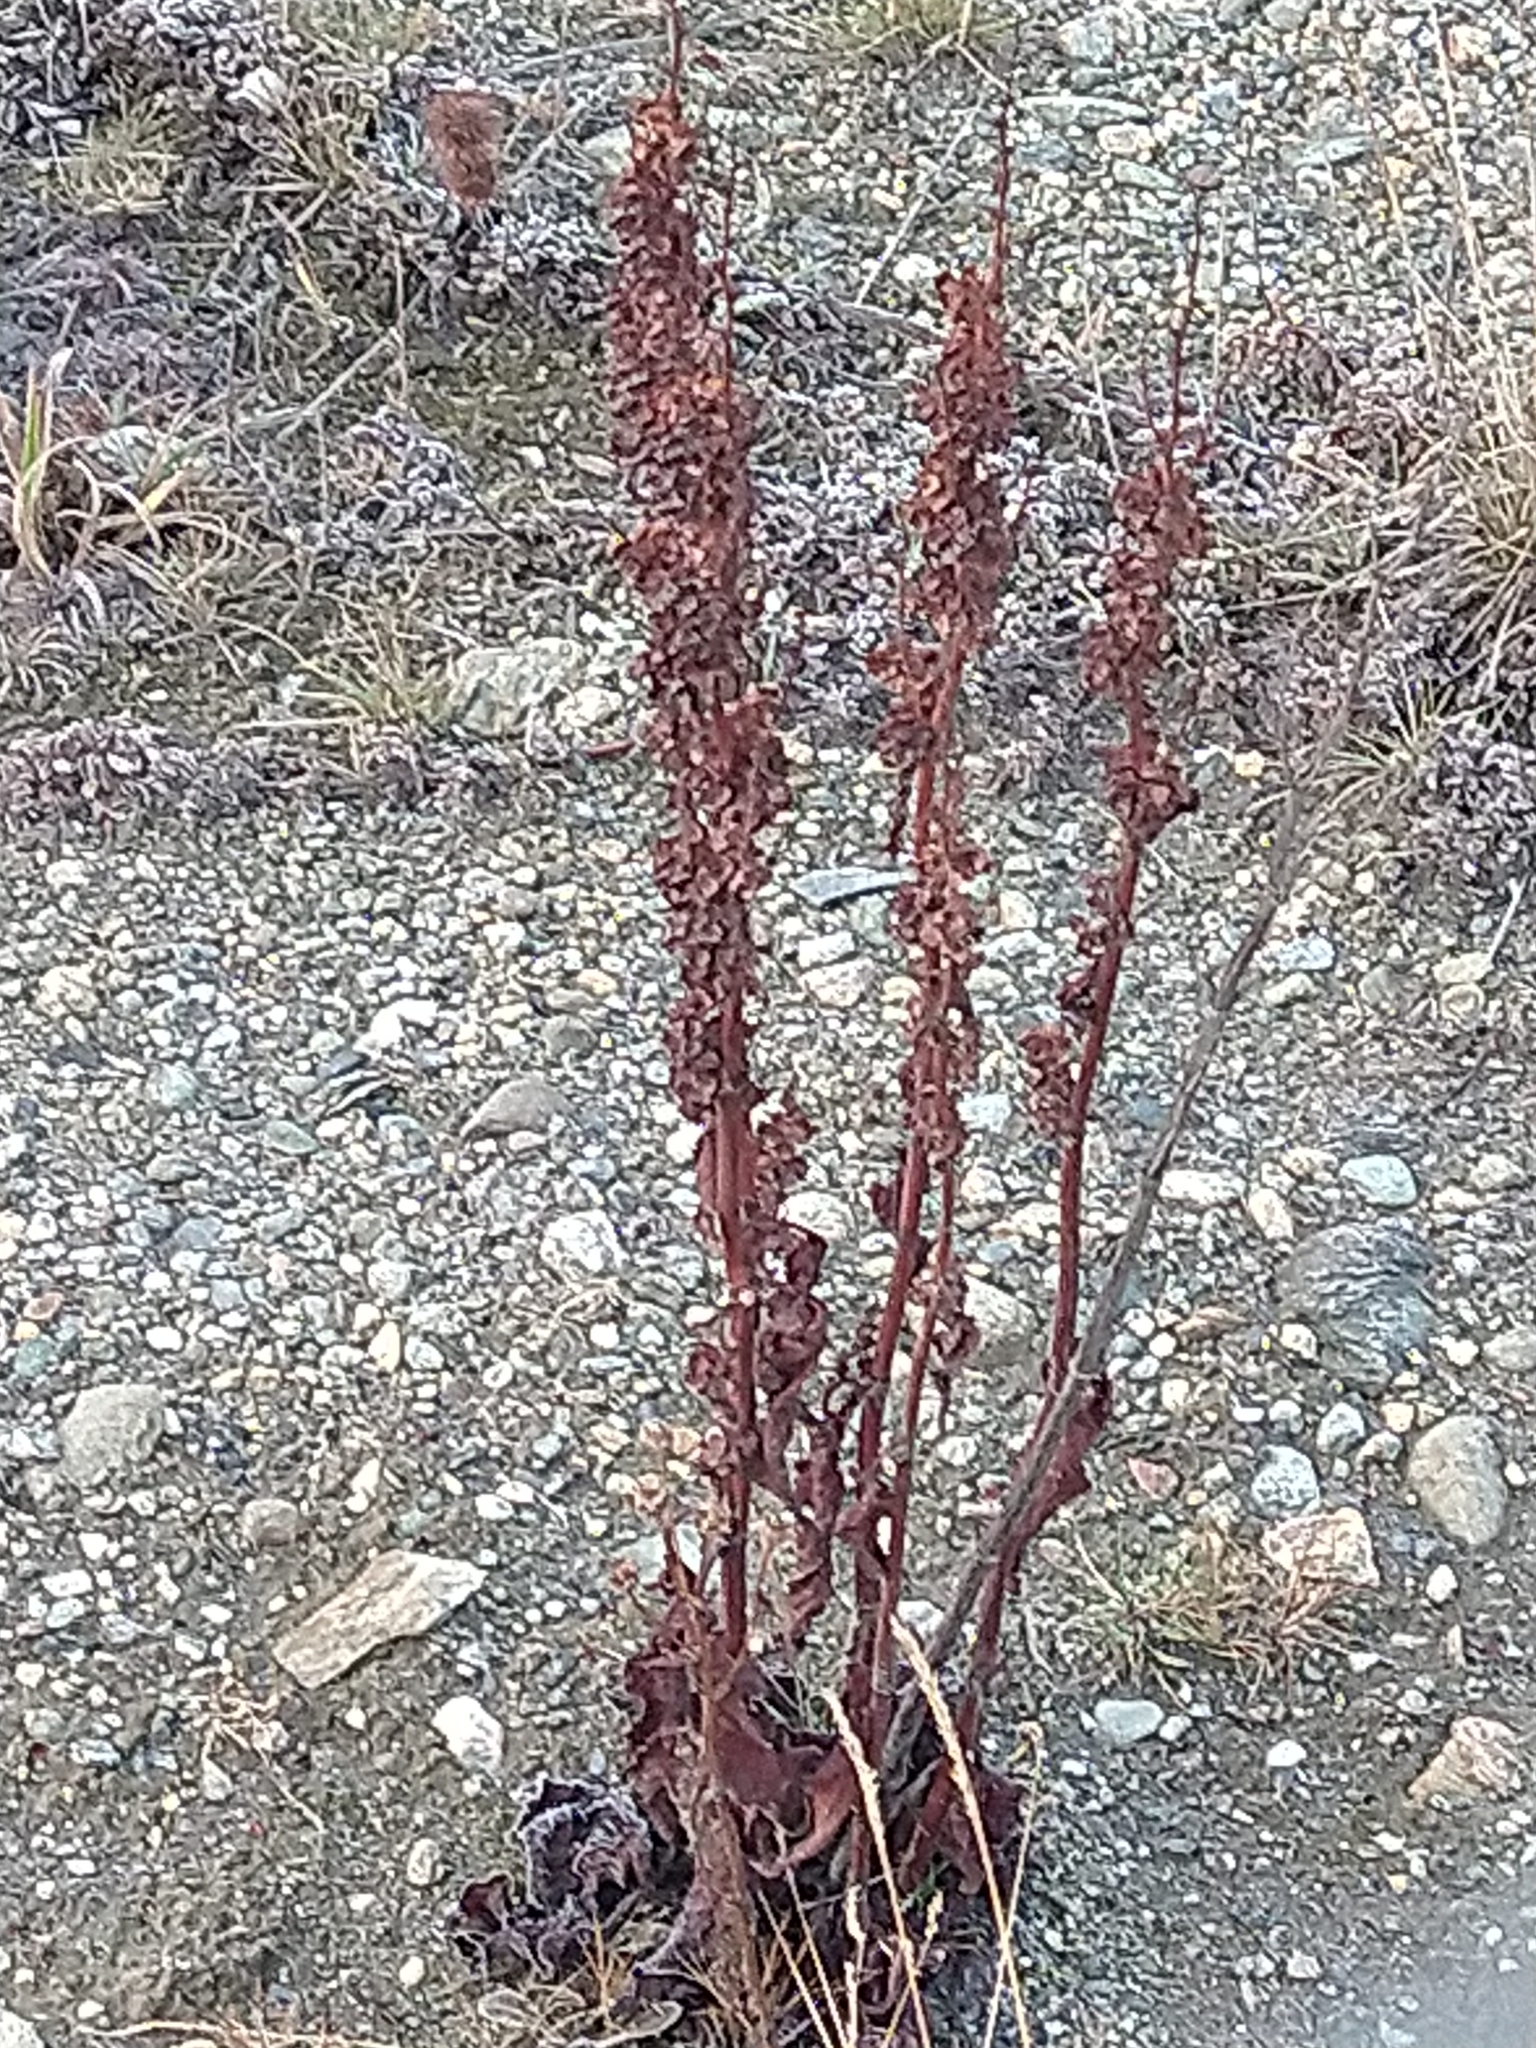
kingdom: Plantae
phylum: Tracheophyta
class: Magnoliopsida
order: Caryophyllales
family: Polygonaceae
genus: Rumex
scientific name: Rumex crispus
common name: Curled dock
